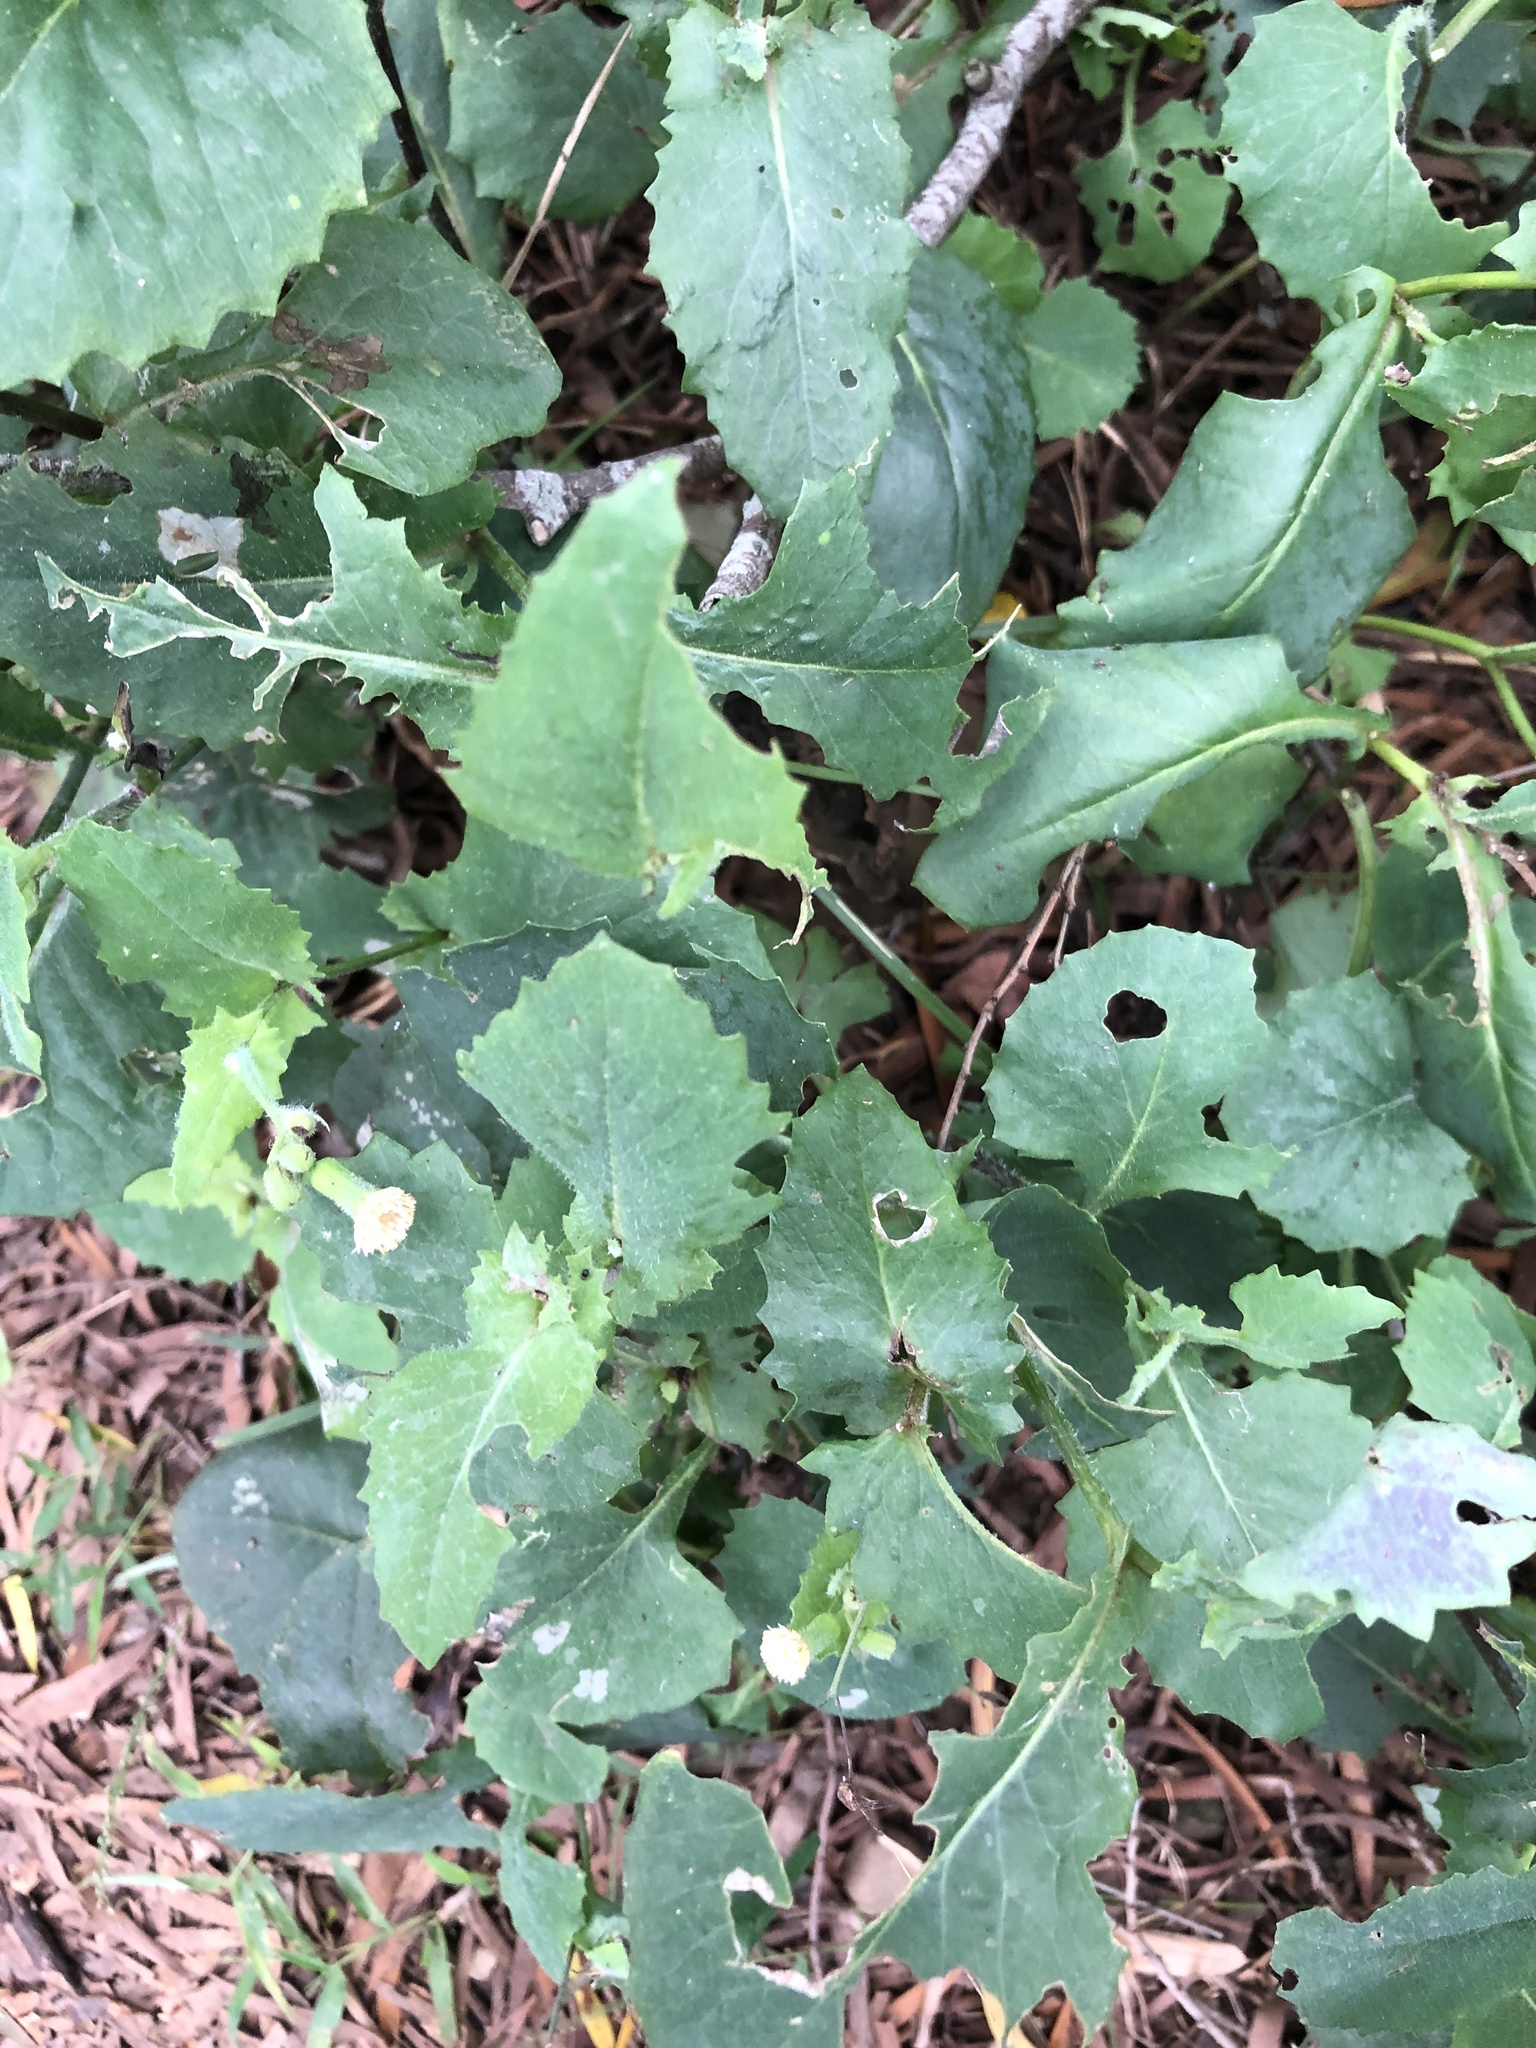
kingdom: Plantae
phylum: Tracheophyta
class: Magnoliopsida
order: Asterales
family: Asteraceae
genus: Sonchus
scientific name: Sonchus oleraceus
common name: Common sowthistle
